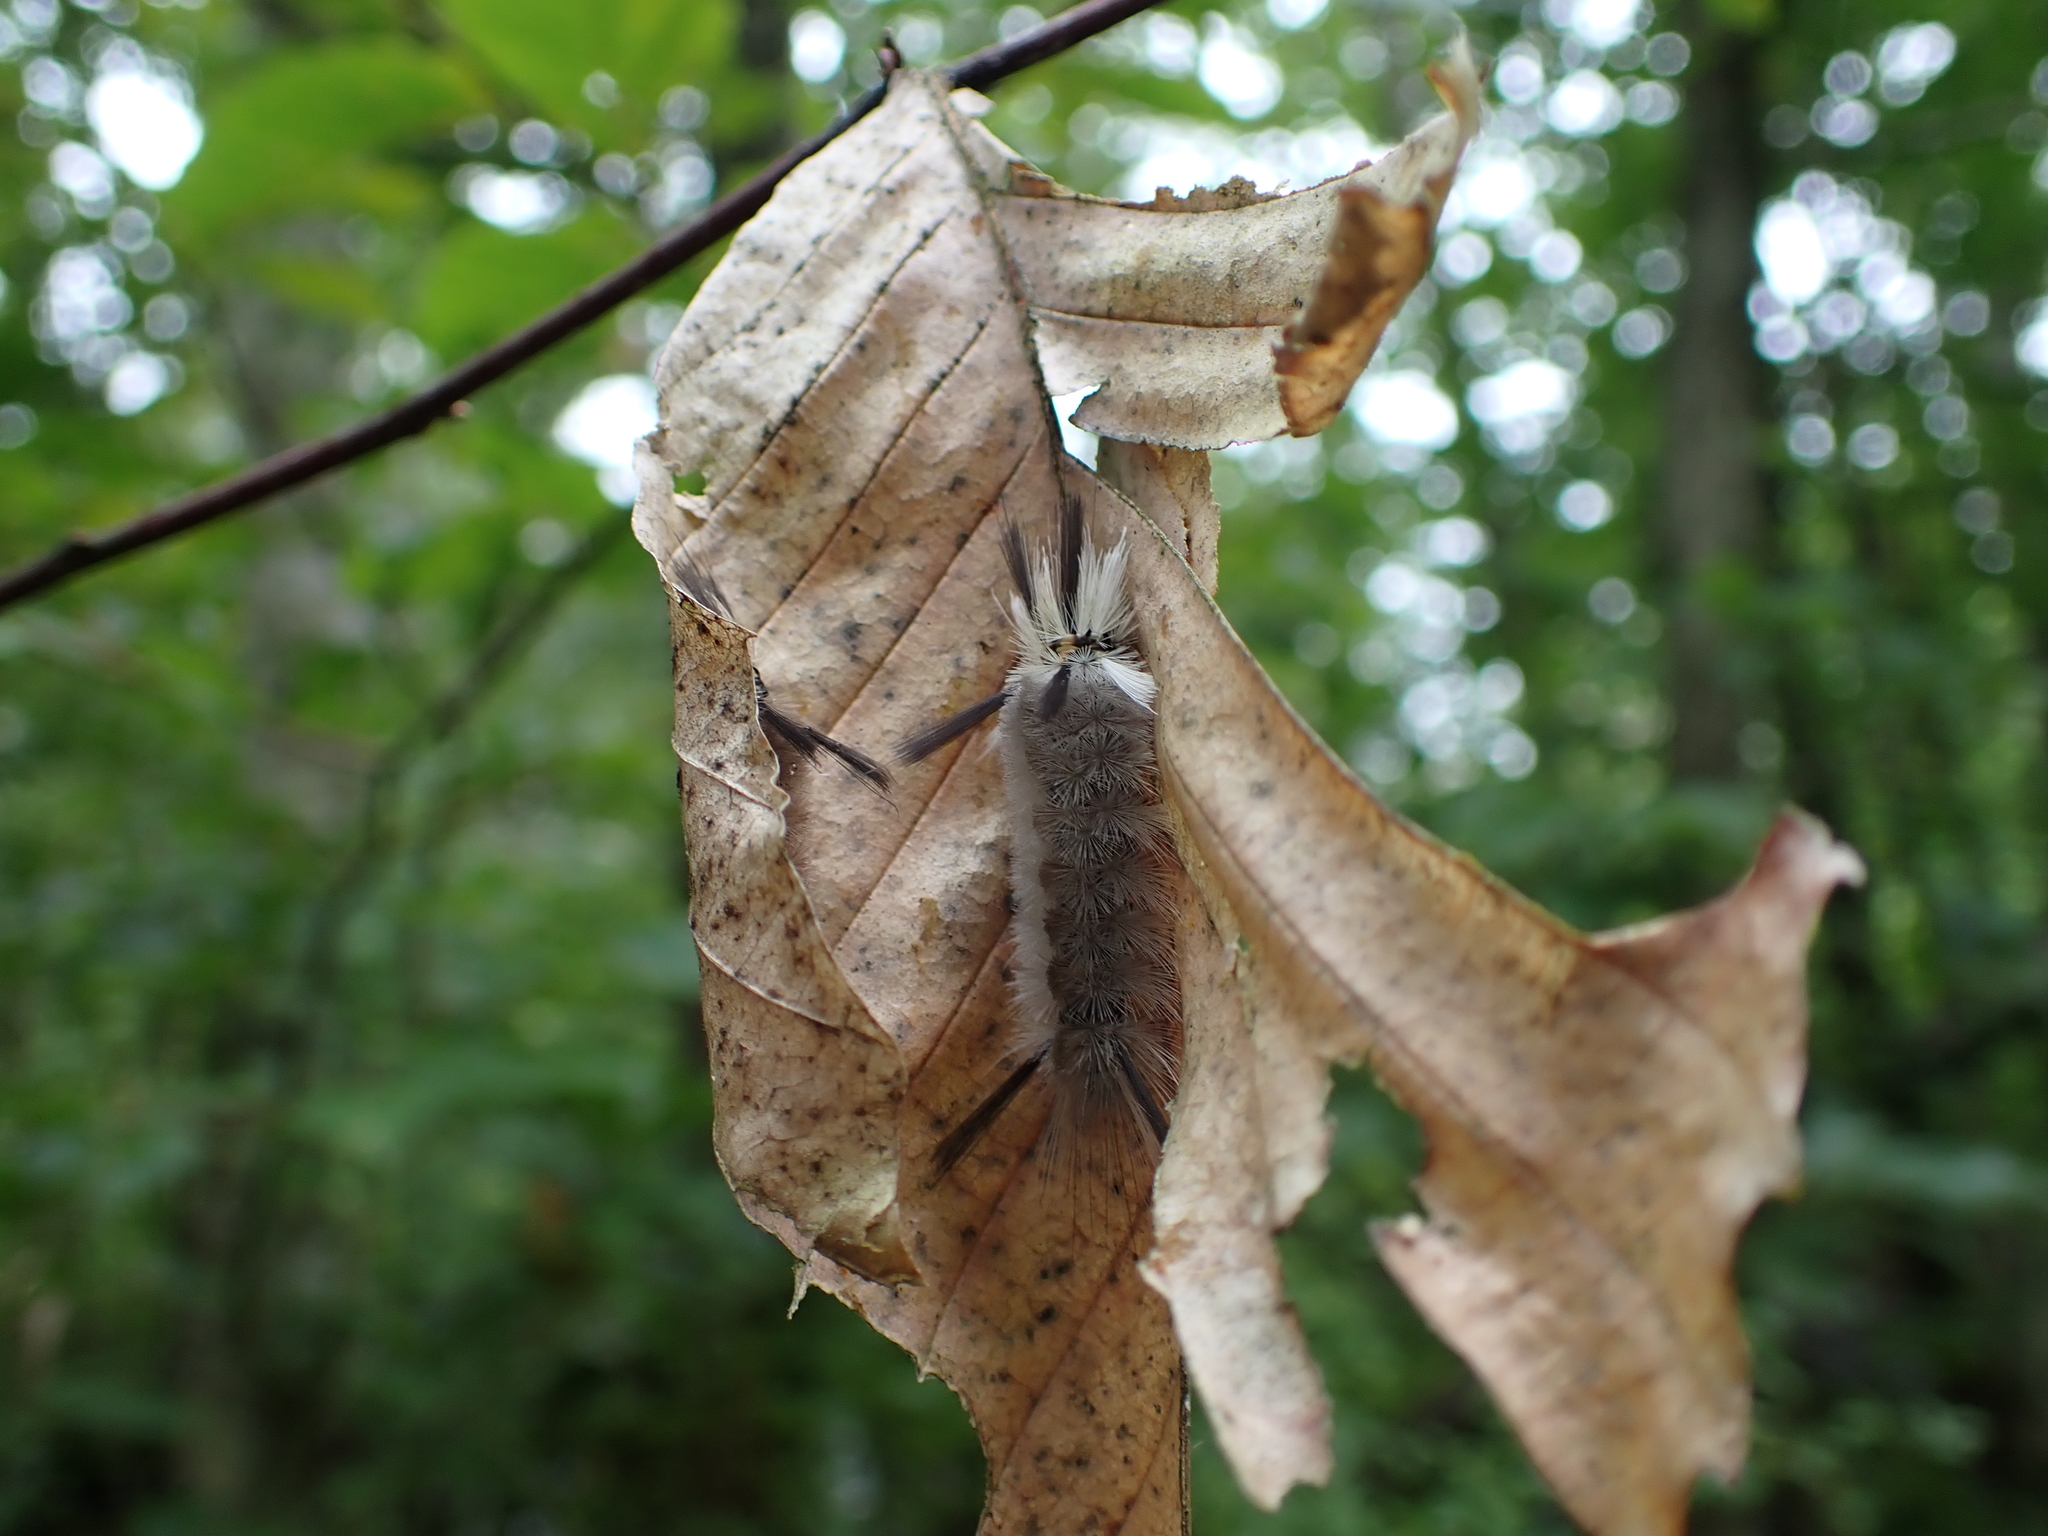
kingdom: Animalia
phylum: Arthropoda
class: Insecta
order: Lepidoptera
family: Erebidae
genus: Halysidota
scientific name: Halysidota tessellaris
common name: Banded tussock moth
